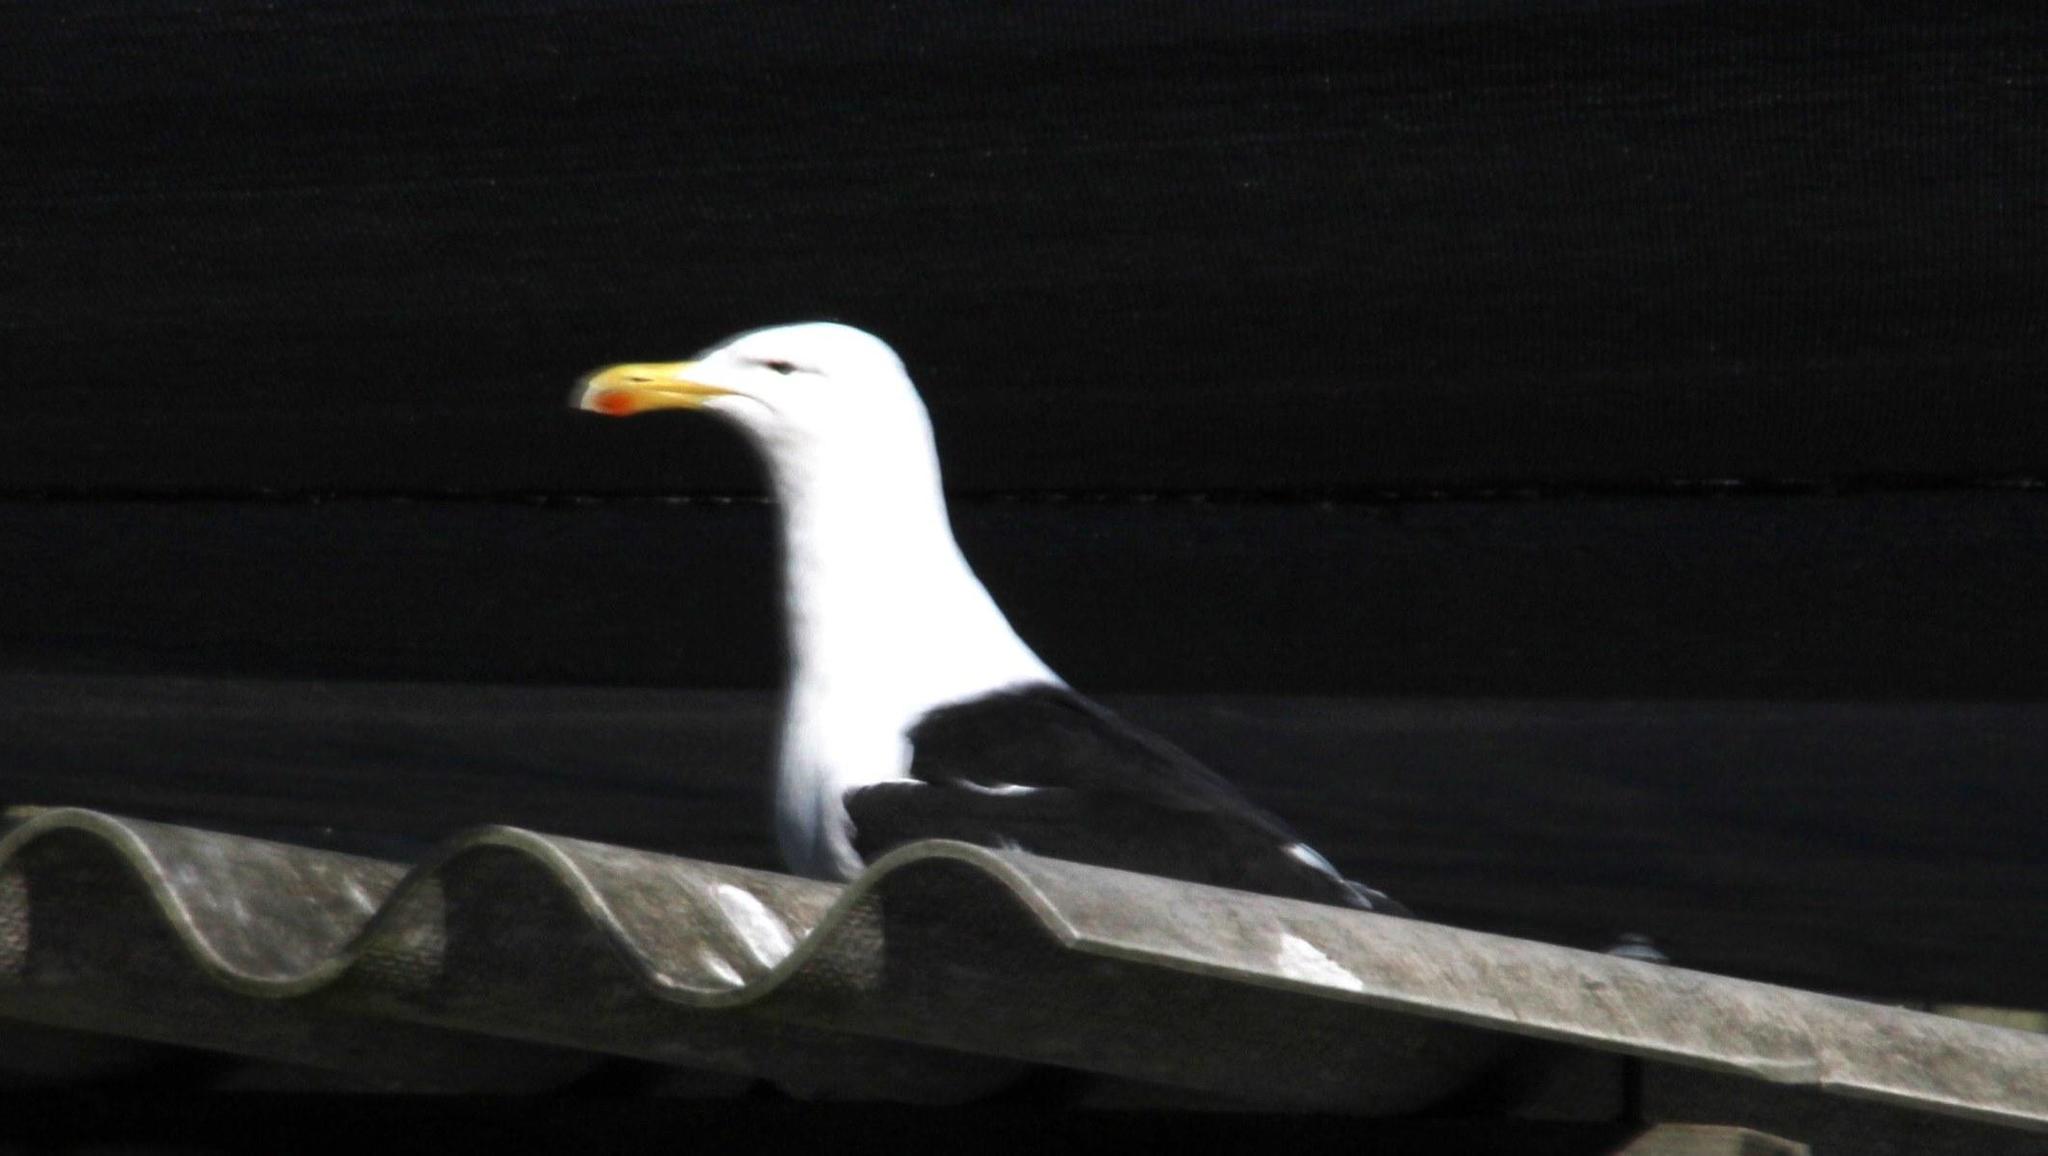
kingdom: Animalia
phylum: Chordata
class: Aves
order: Charadriiformes
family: Laridae
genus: Larus
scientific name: Larus dominicanus
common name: Kelp gull
